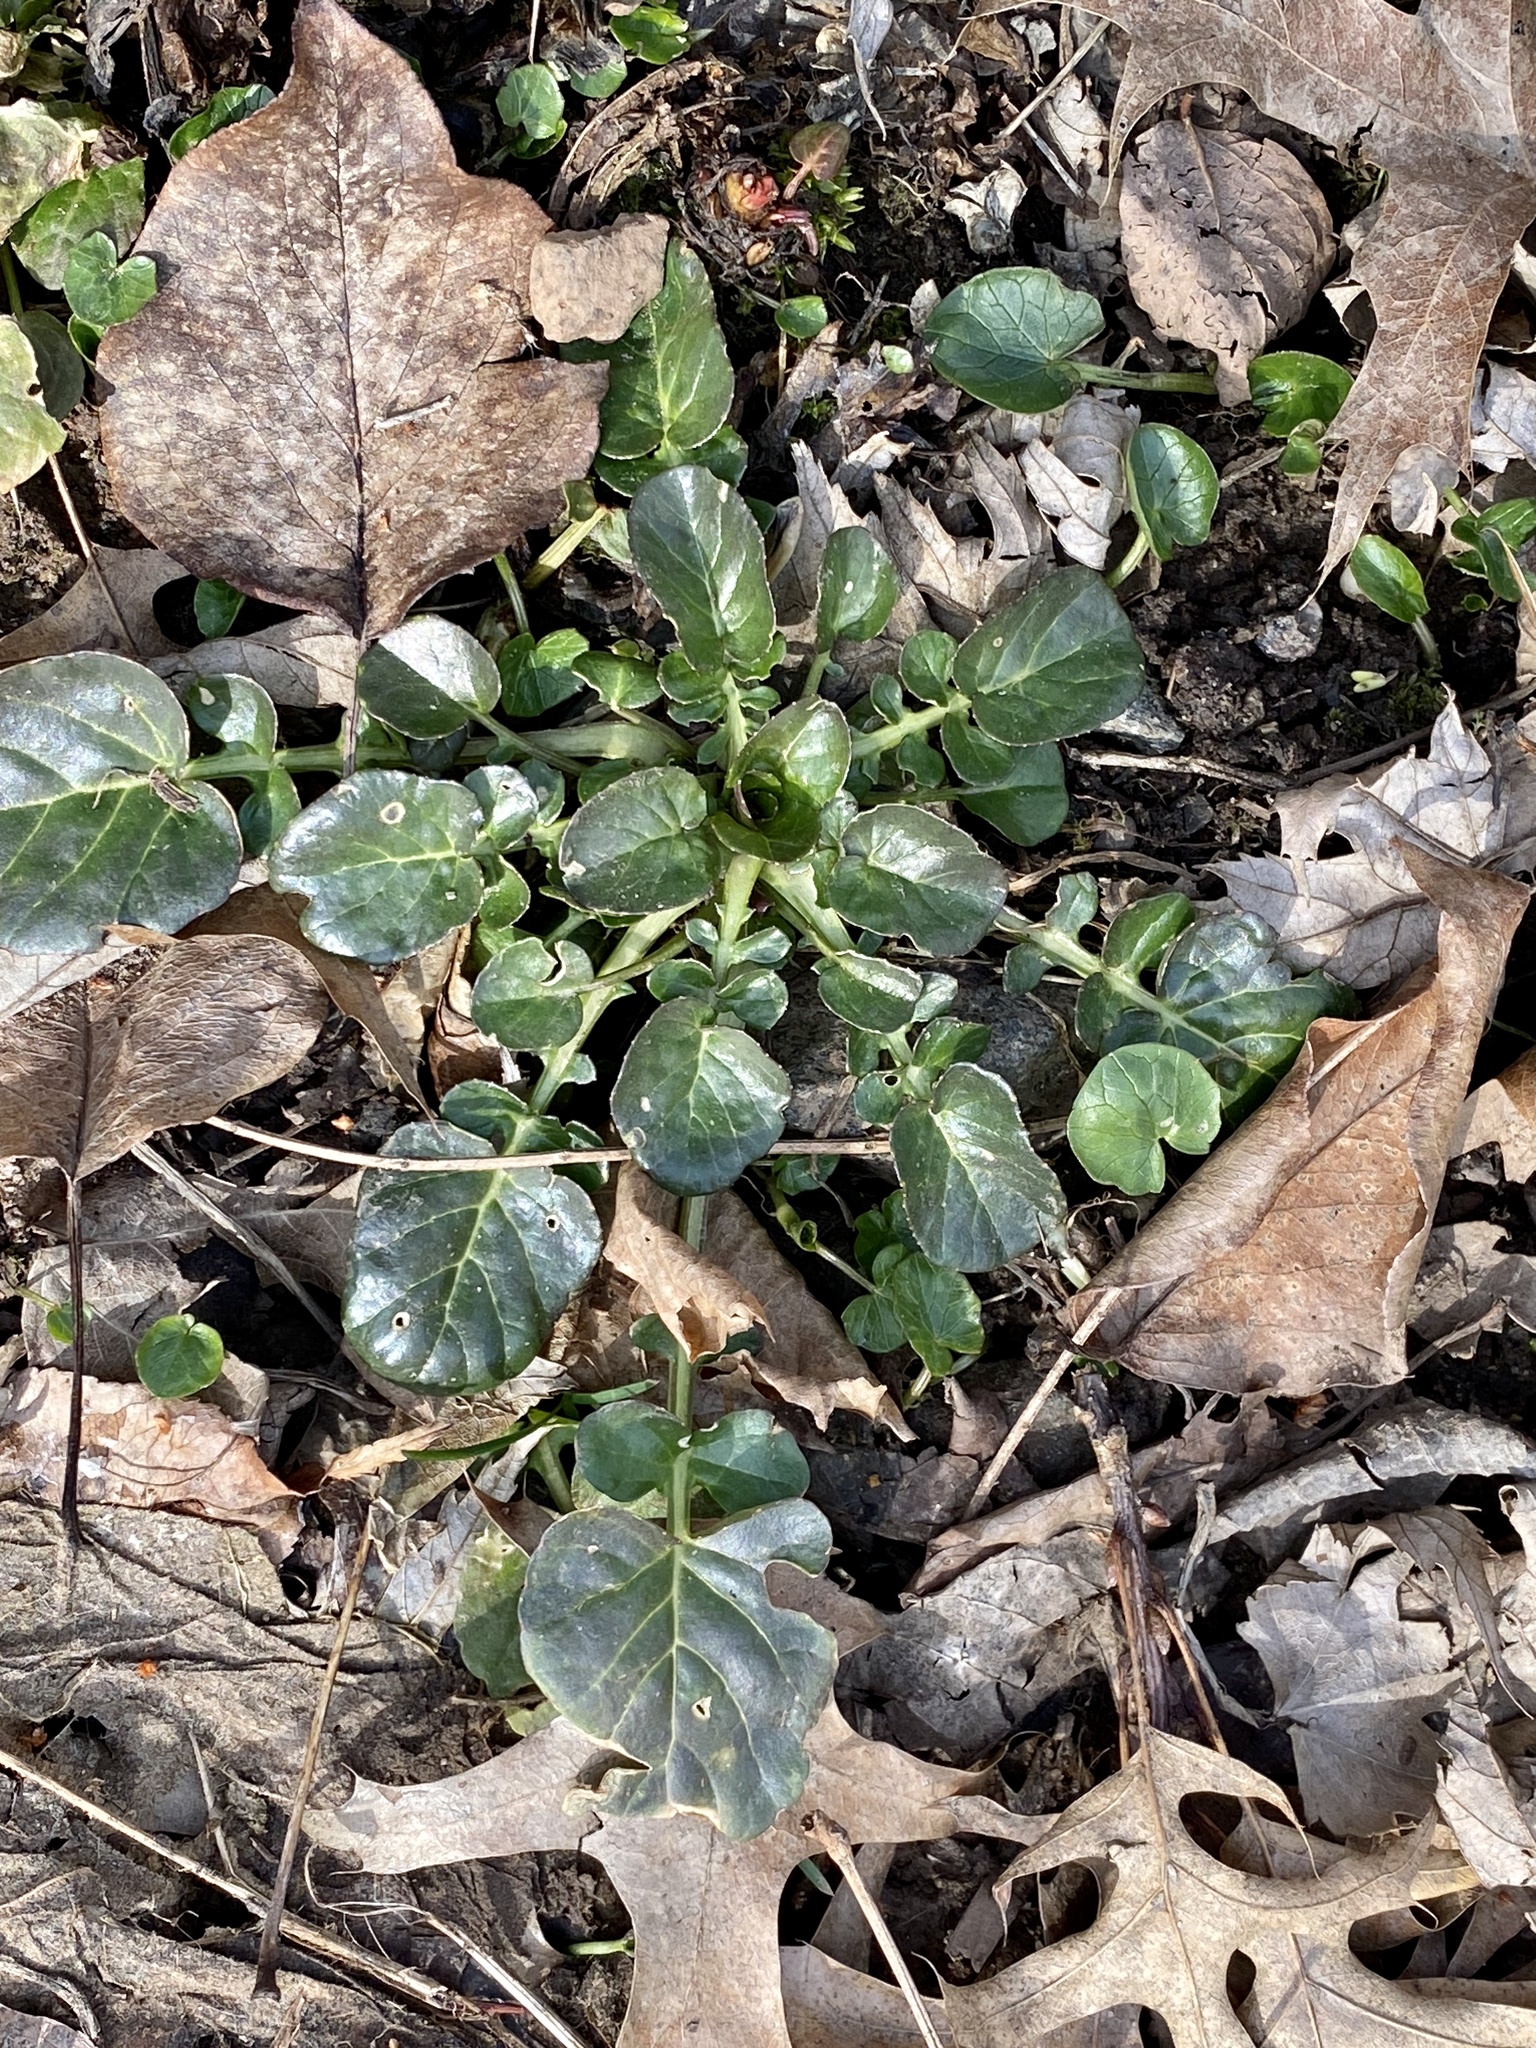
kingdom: Plantae
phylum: Tracheophyta
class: Magnoliopsida
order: Brassicales
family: Brassicaceae
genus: Barbarea
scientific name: Barbarea vulgaris
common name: Cressy-greens
